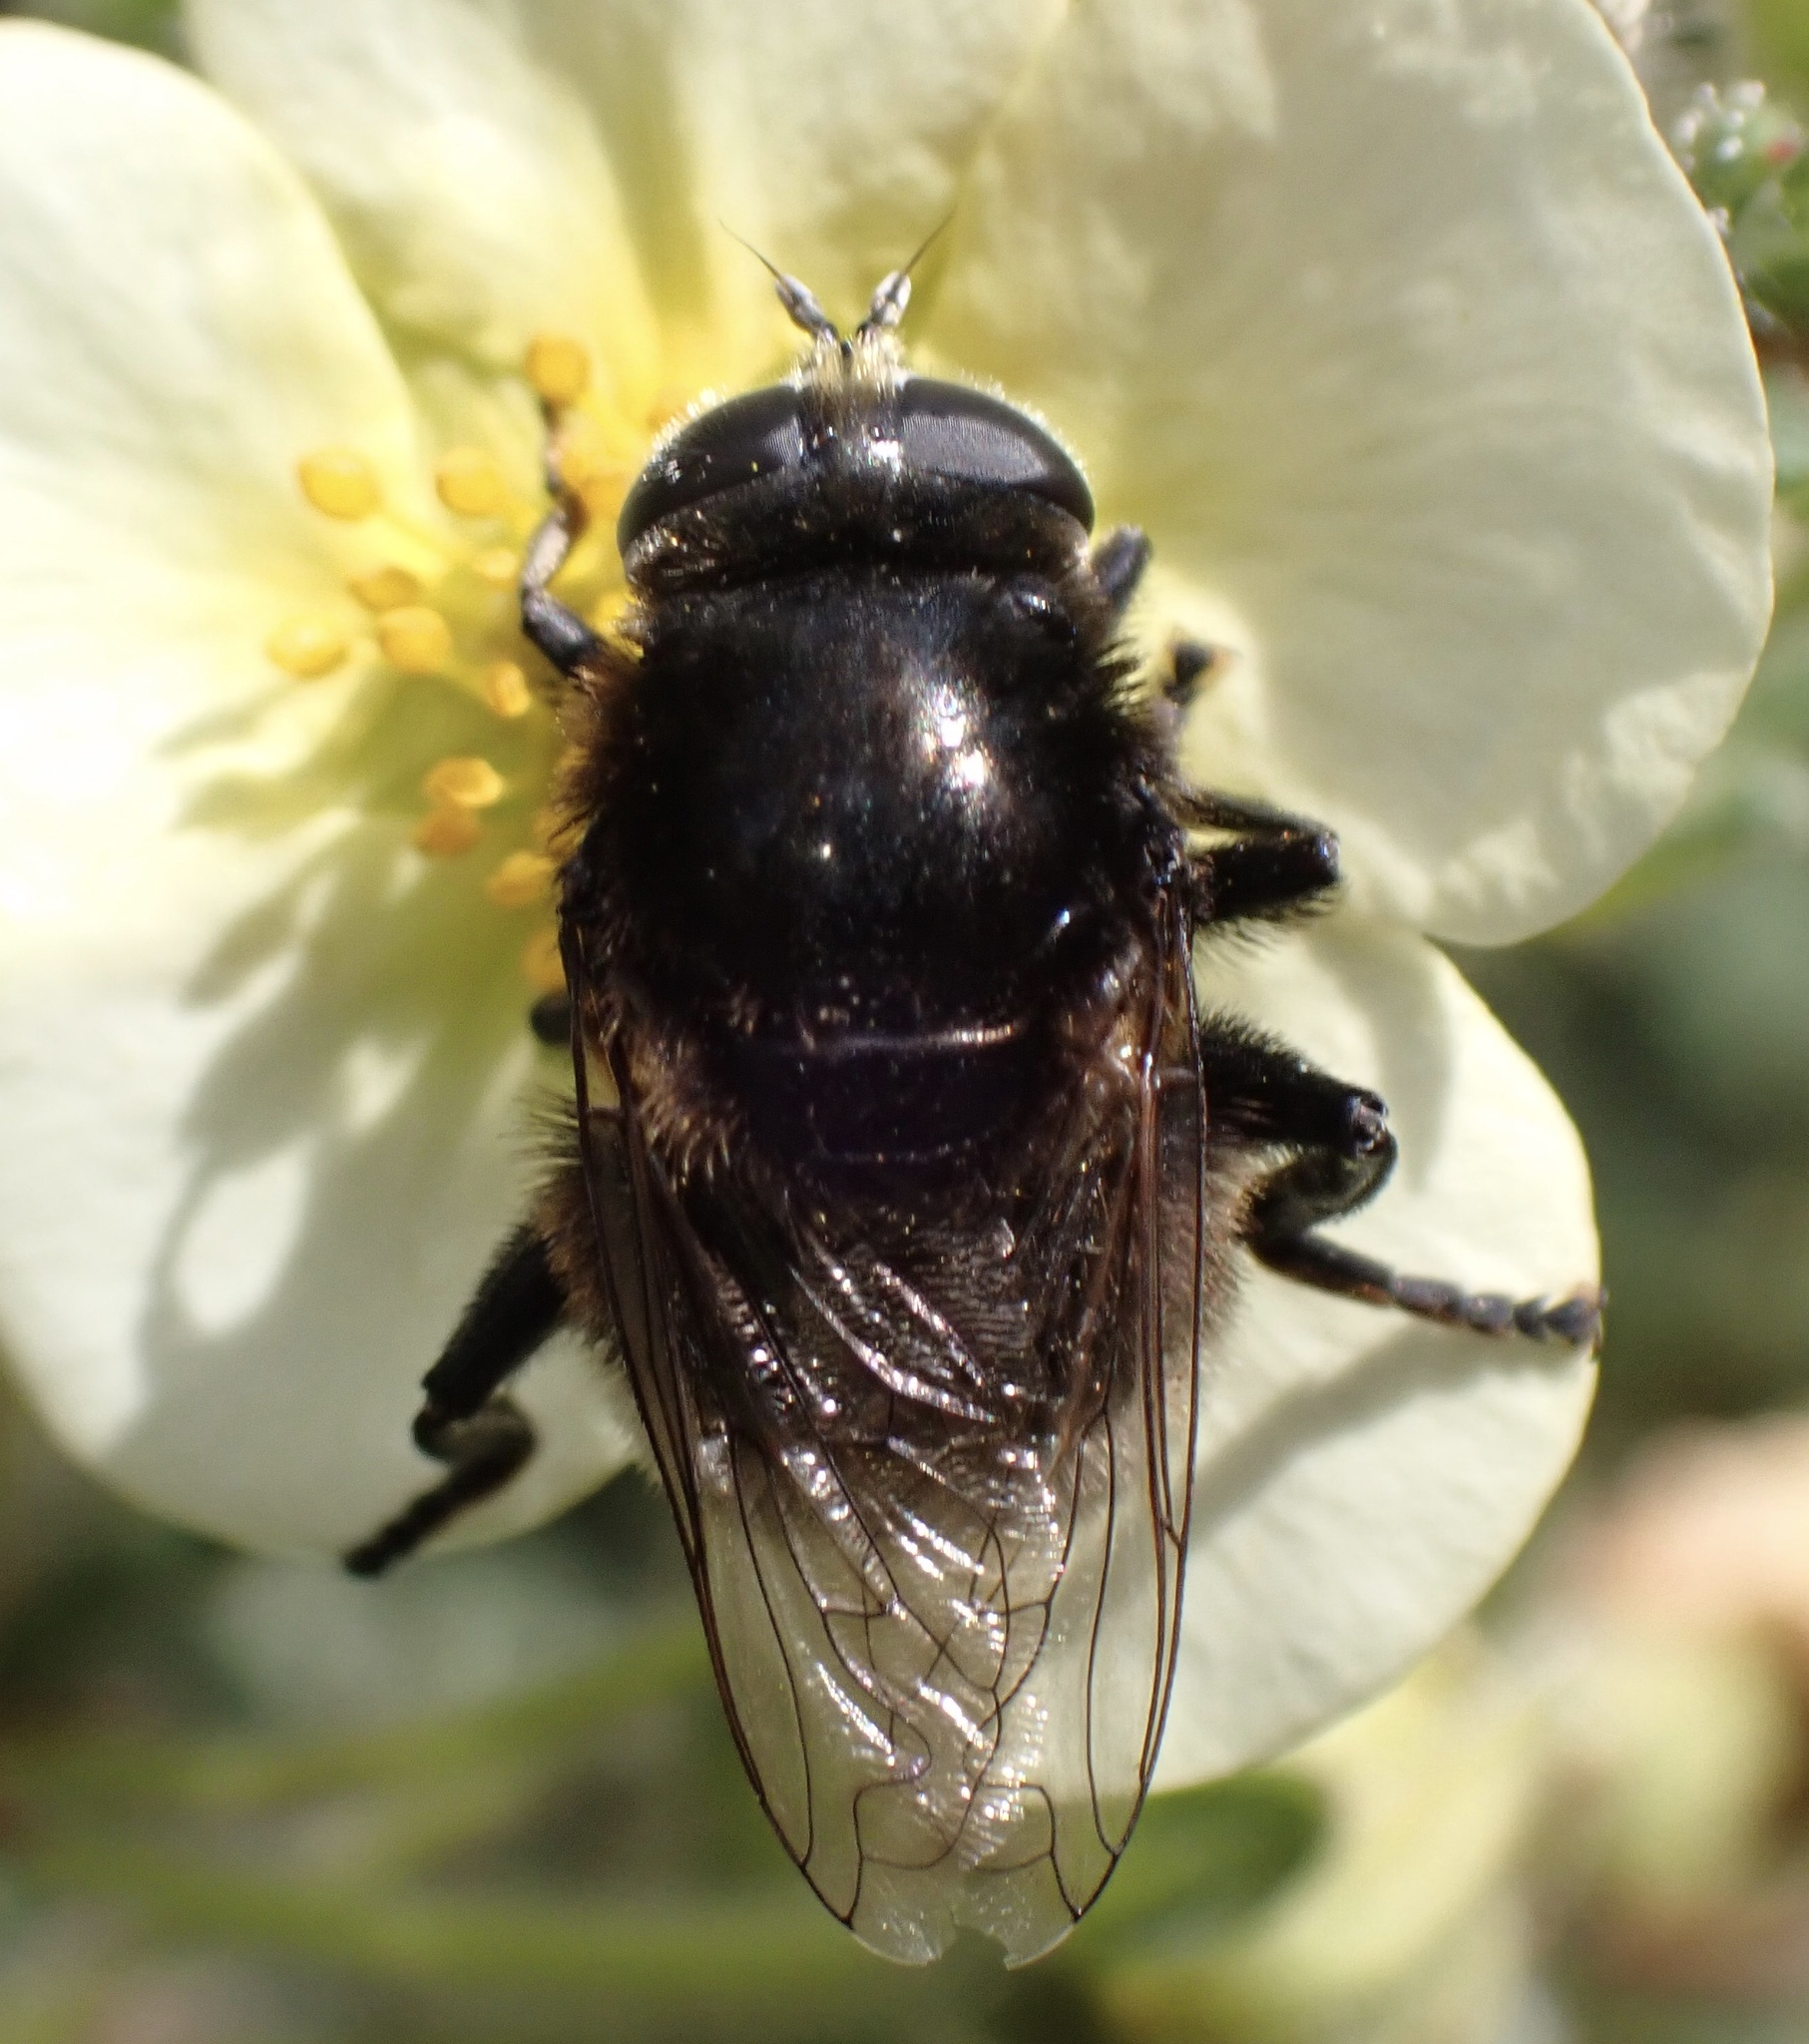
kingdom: Animalia
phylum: Arthropoda
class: Insecta
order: Diptera
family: Syrphidae
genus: Merodon
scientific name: Merodon equestris
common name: Greater bulb-fly
